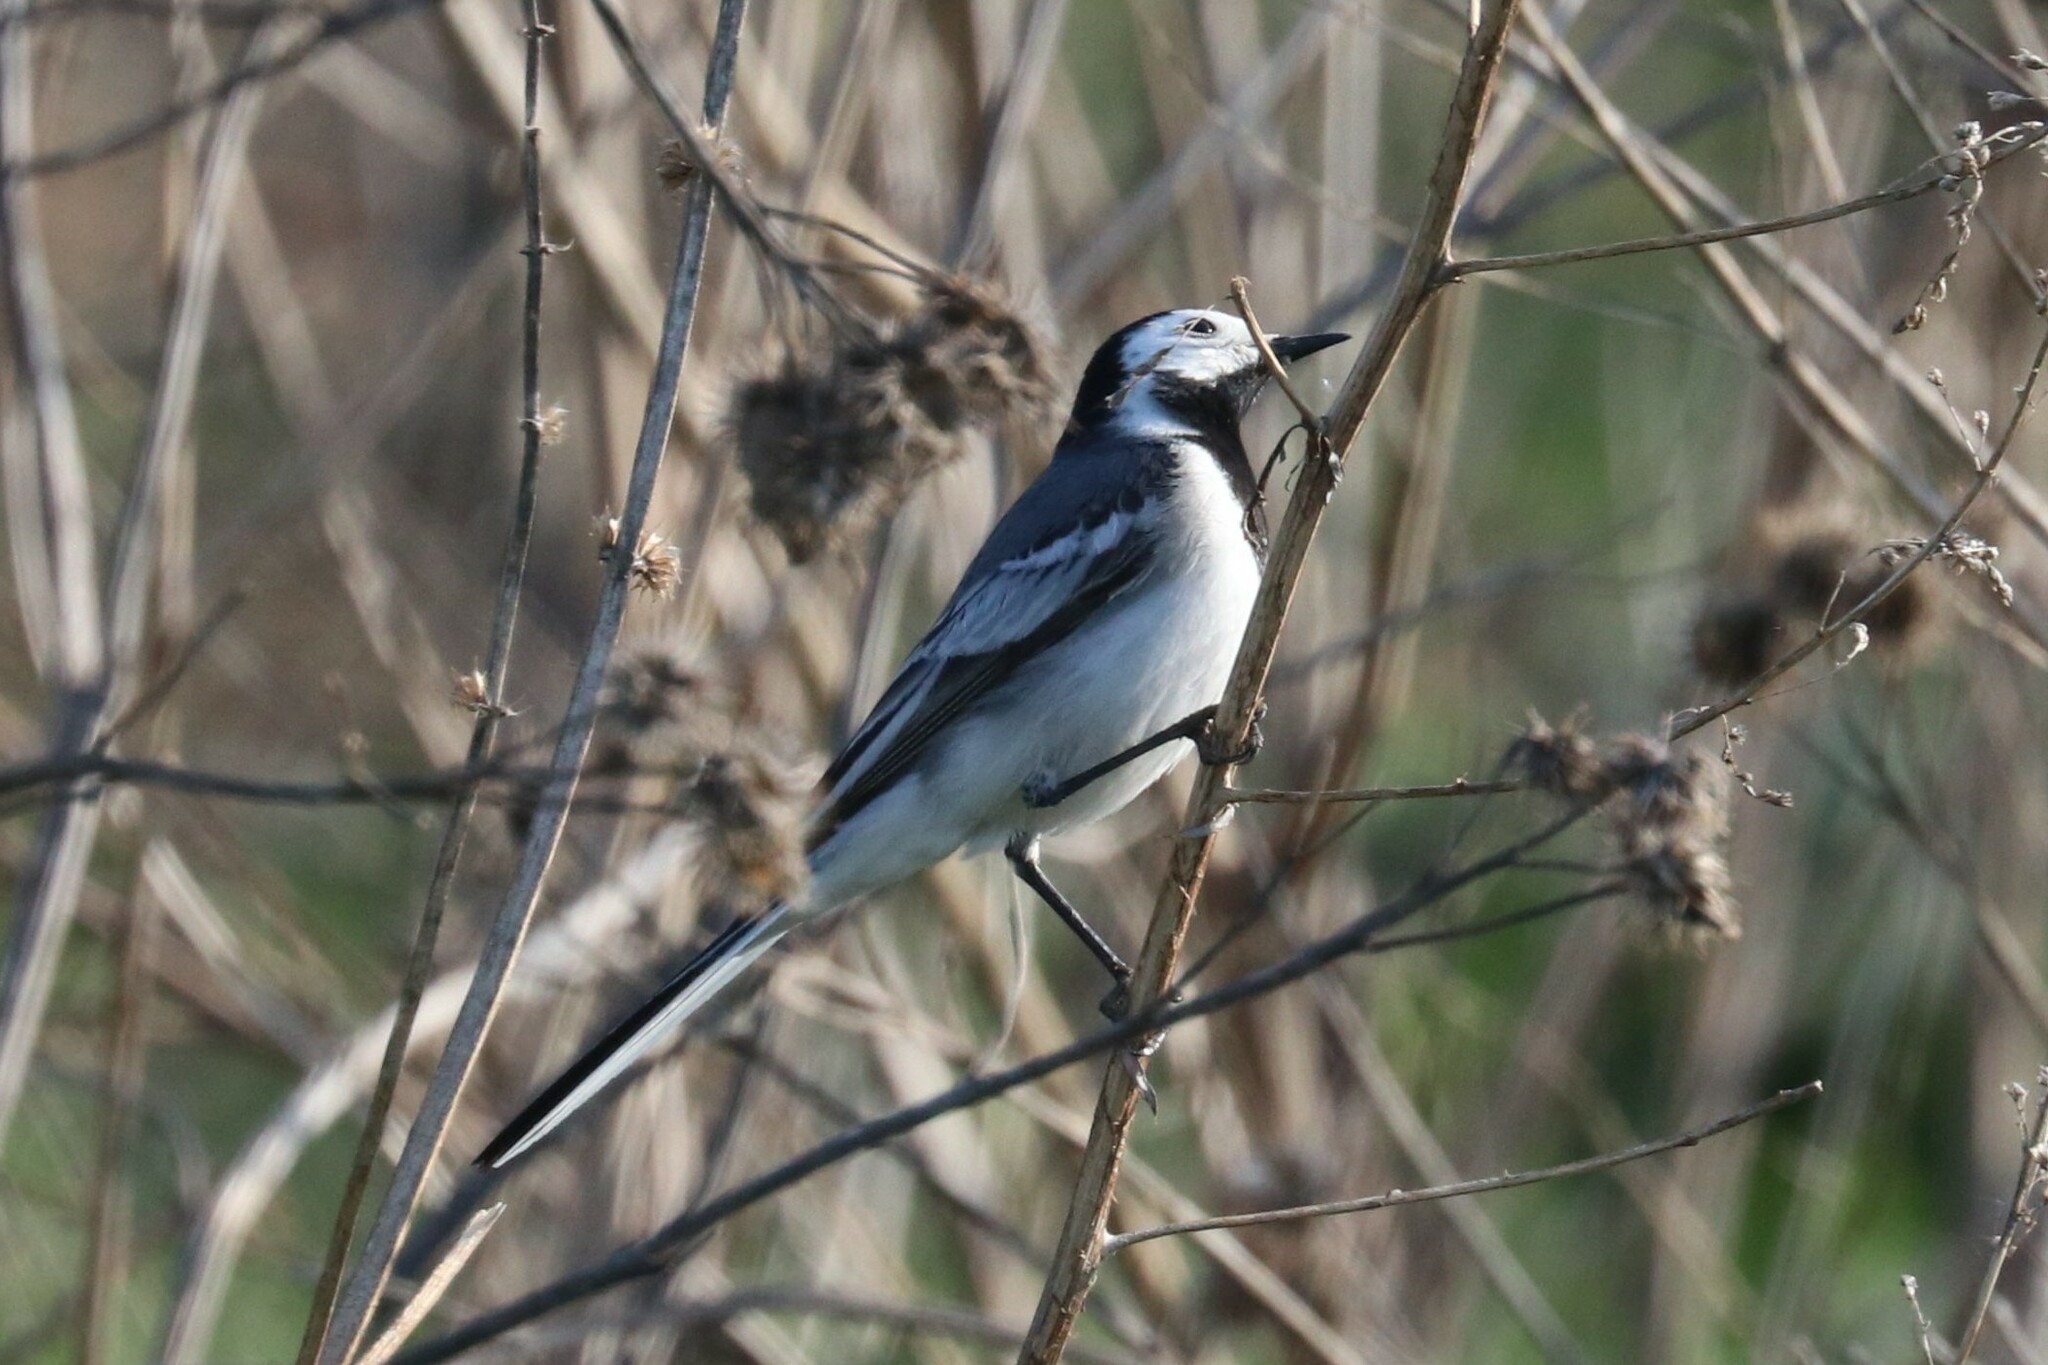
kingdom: Animalia
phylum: Chordata
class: Aves
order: Passeriformes
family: Motacillidae
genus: Motacilla
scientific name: Motacilla alba
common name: White wagtail
